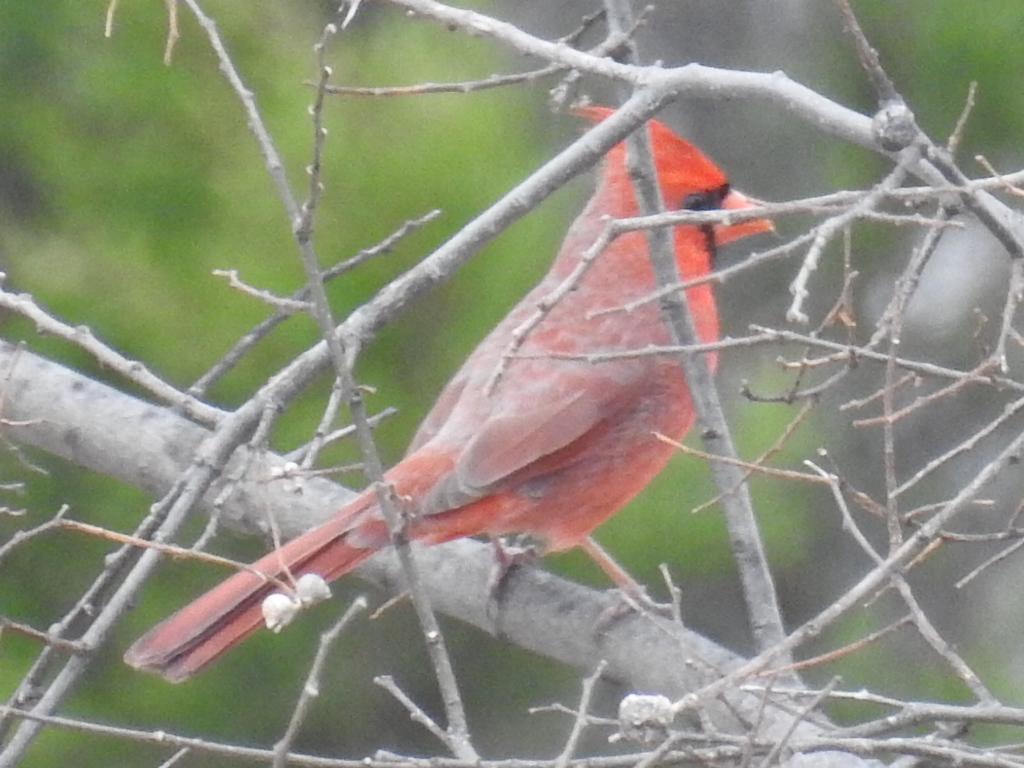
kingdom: Animalia
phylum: Chordata
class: Aves
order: Passeriformes
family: Cardinalidae
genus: Cardinalis
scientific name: Cardinalis cardinalis
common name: Northern cardinal
